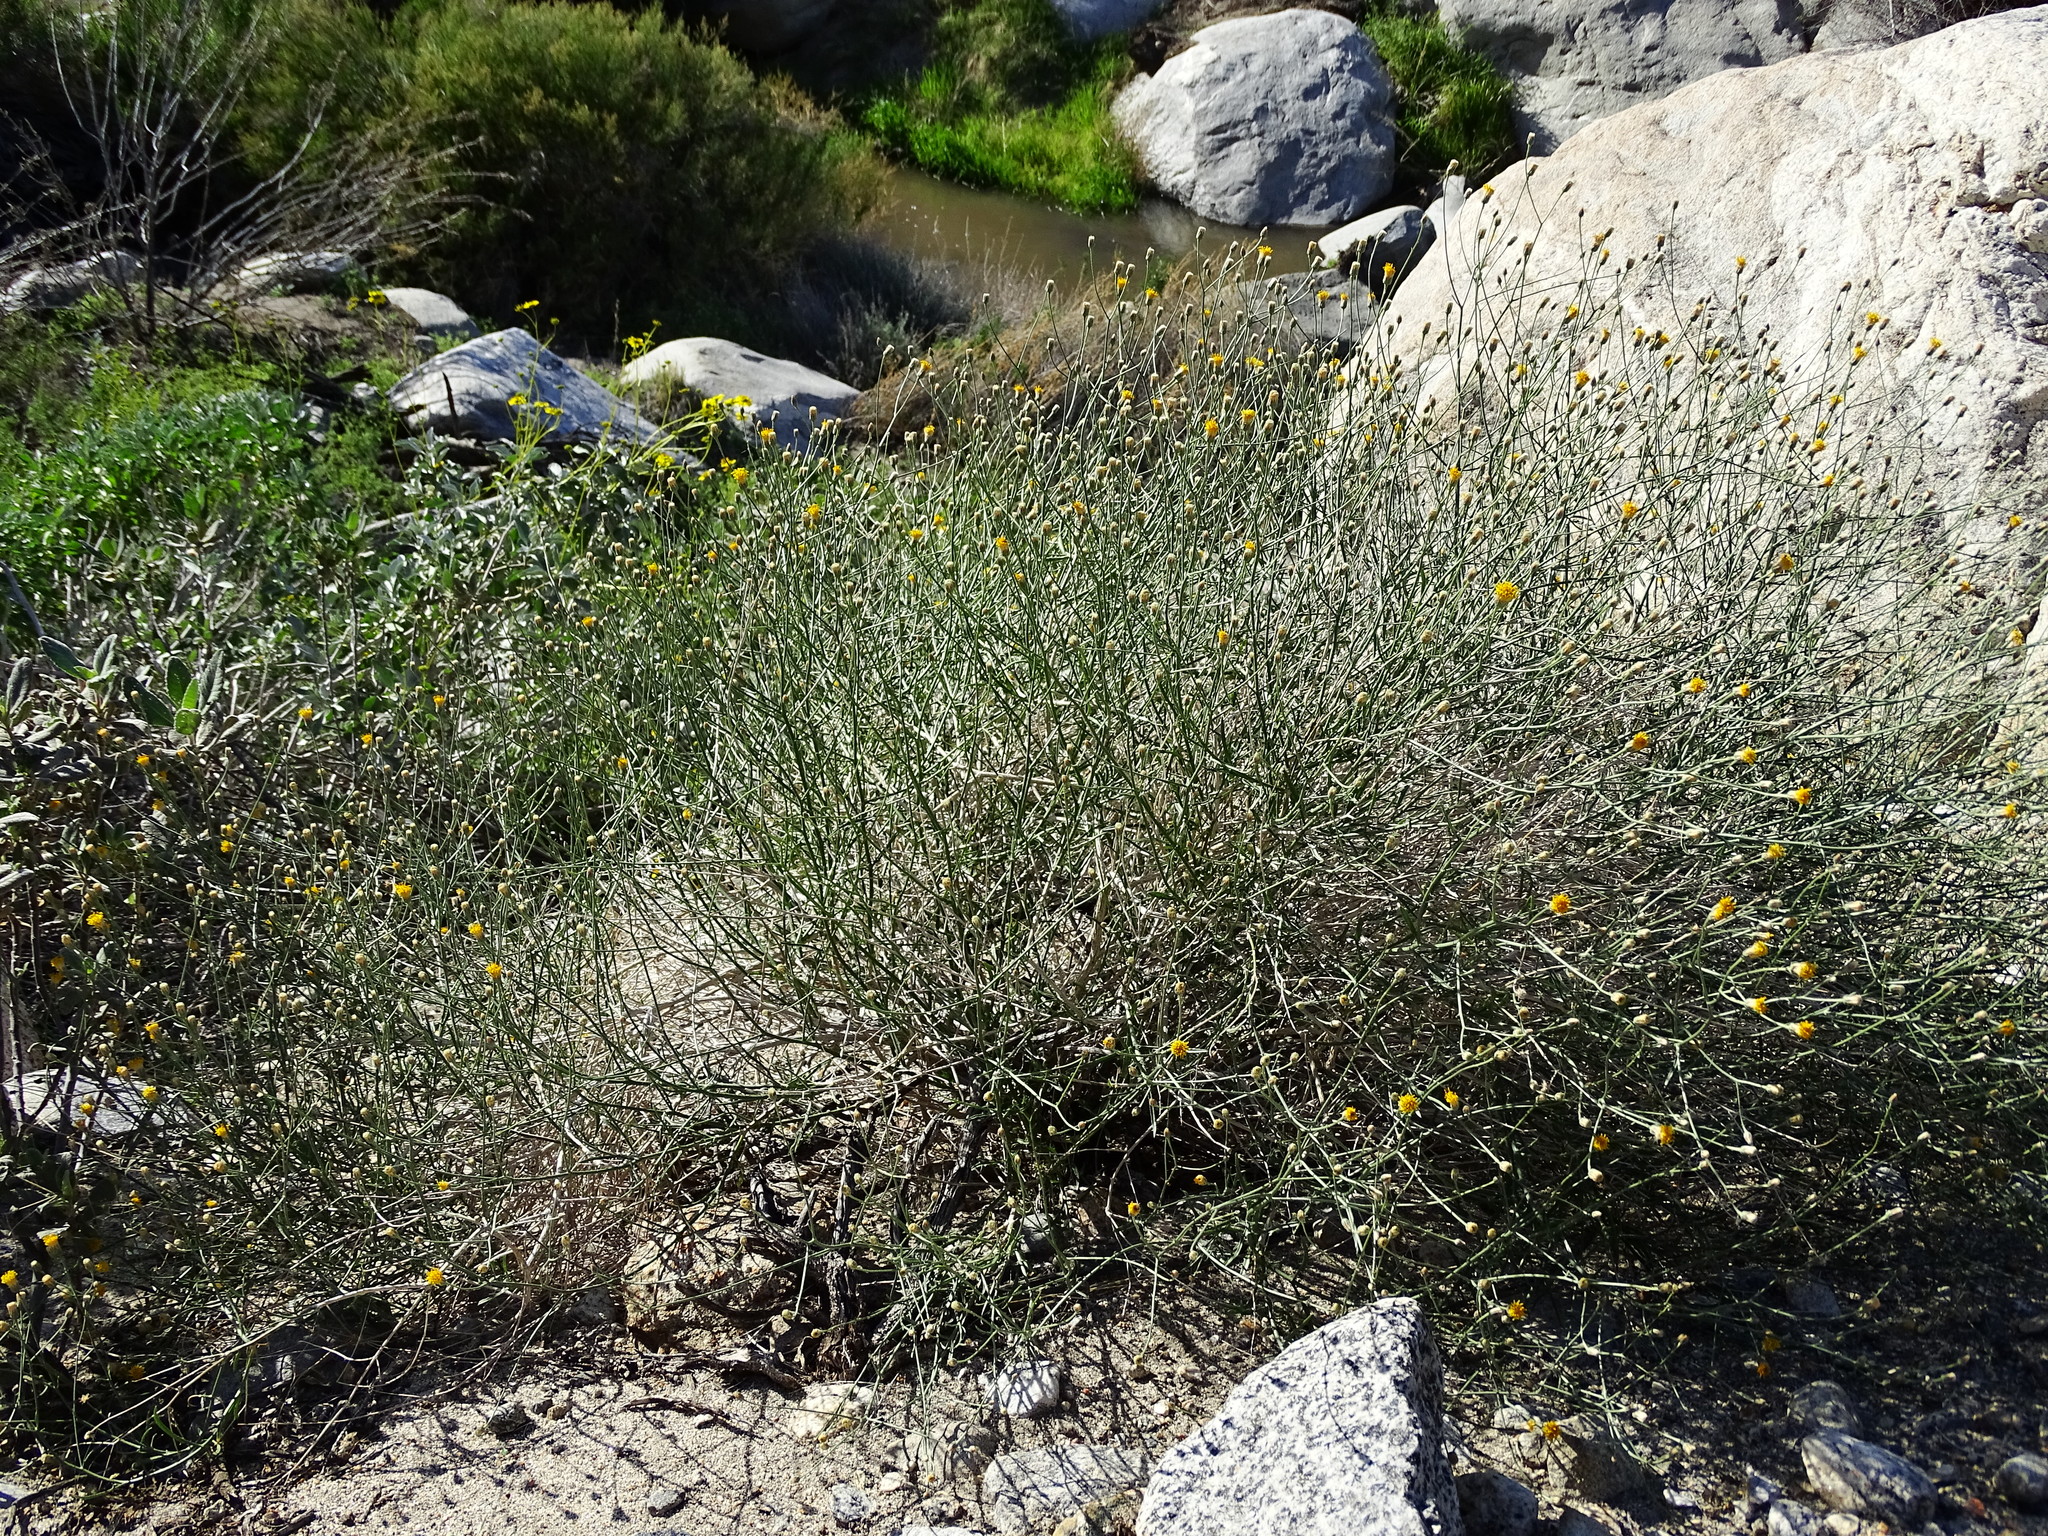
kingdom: Plantae
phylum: Tracheophyta
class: Magnoliopsida
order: Asterales
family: Asteraceae
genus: Bebbia
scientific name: Bebbia juncea
